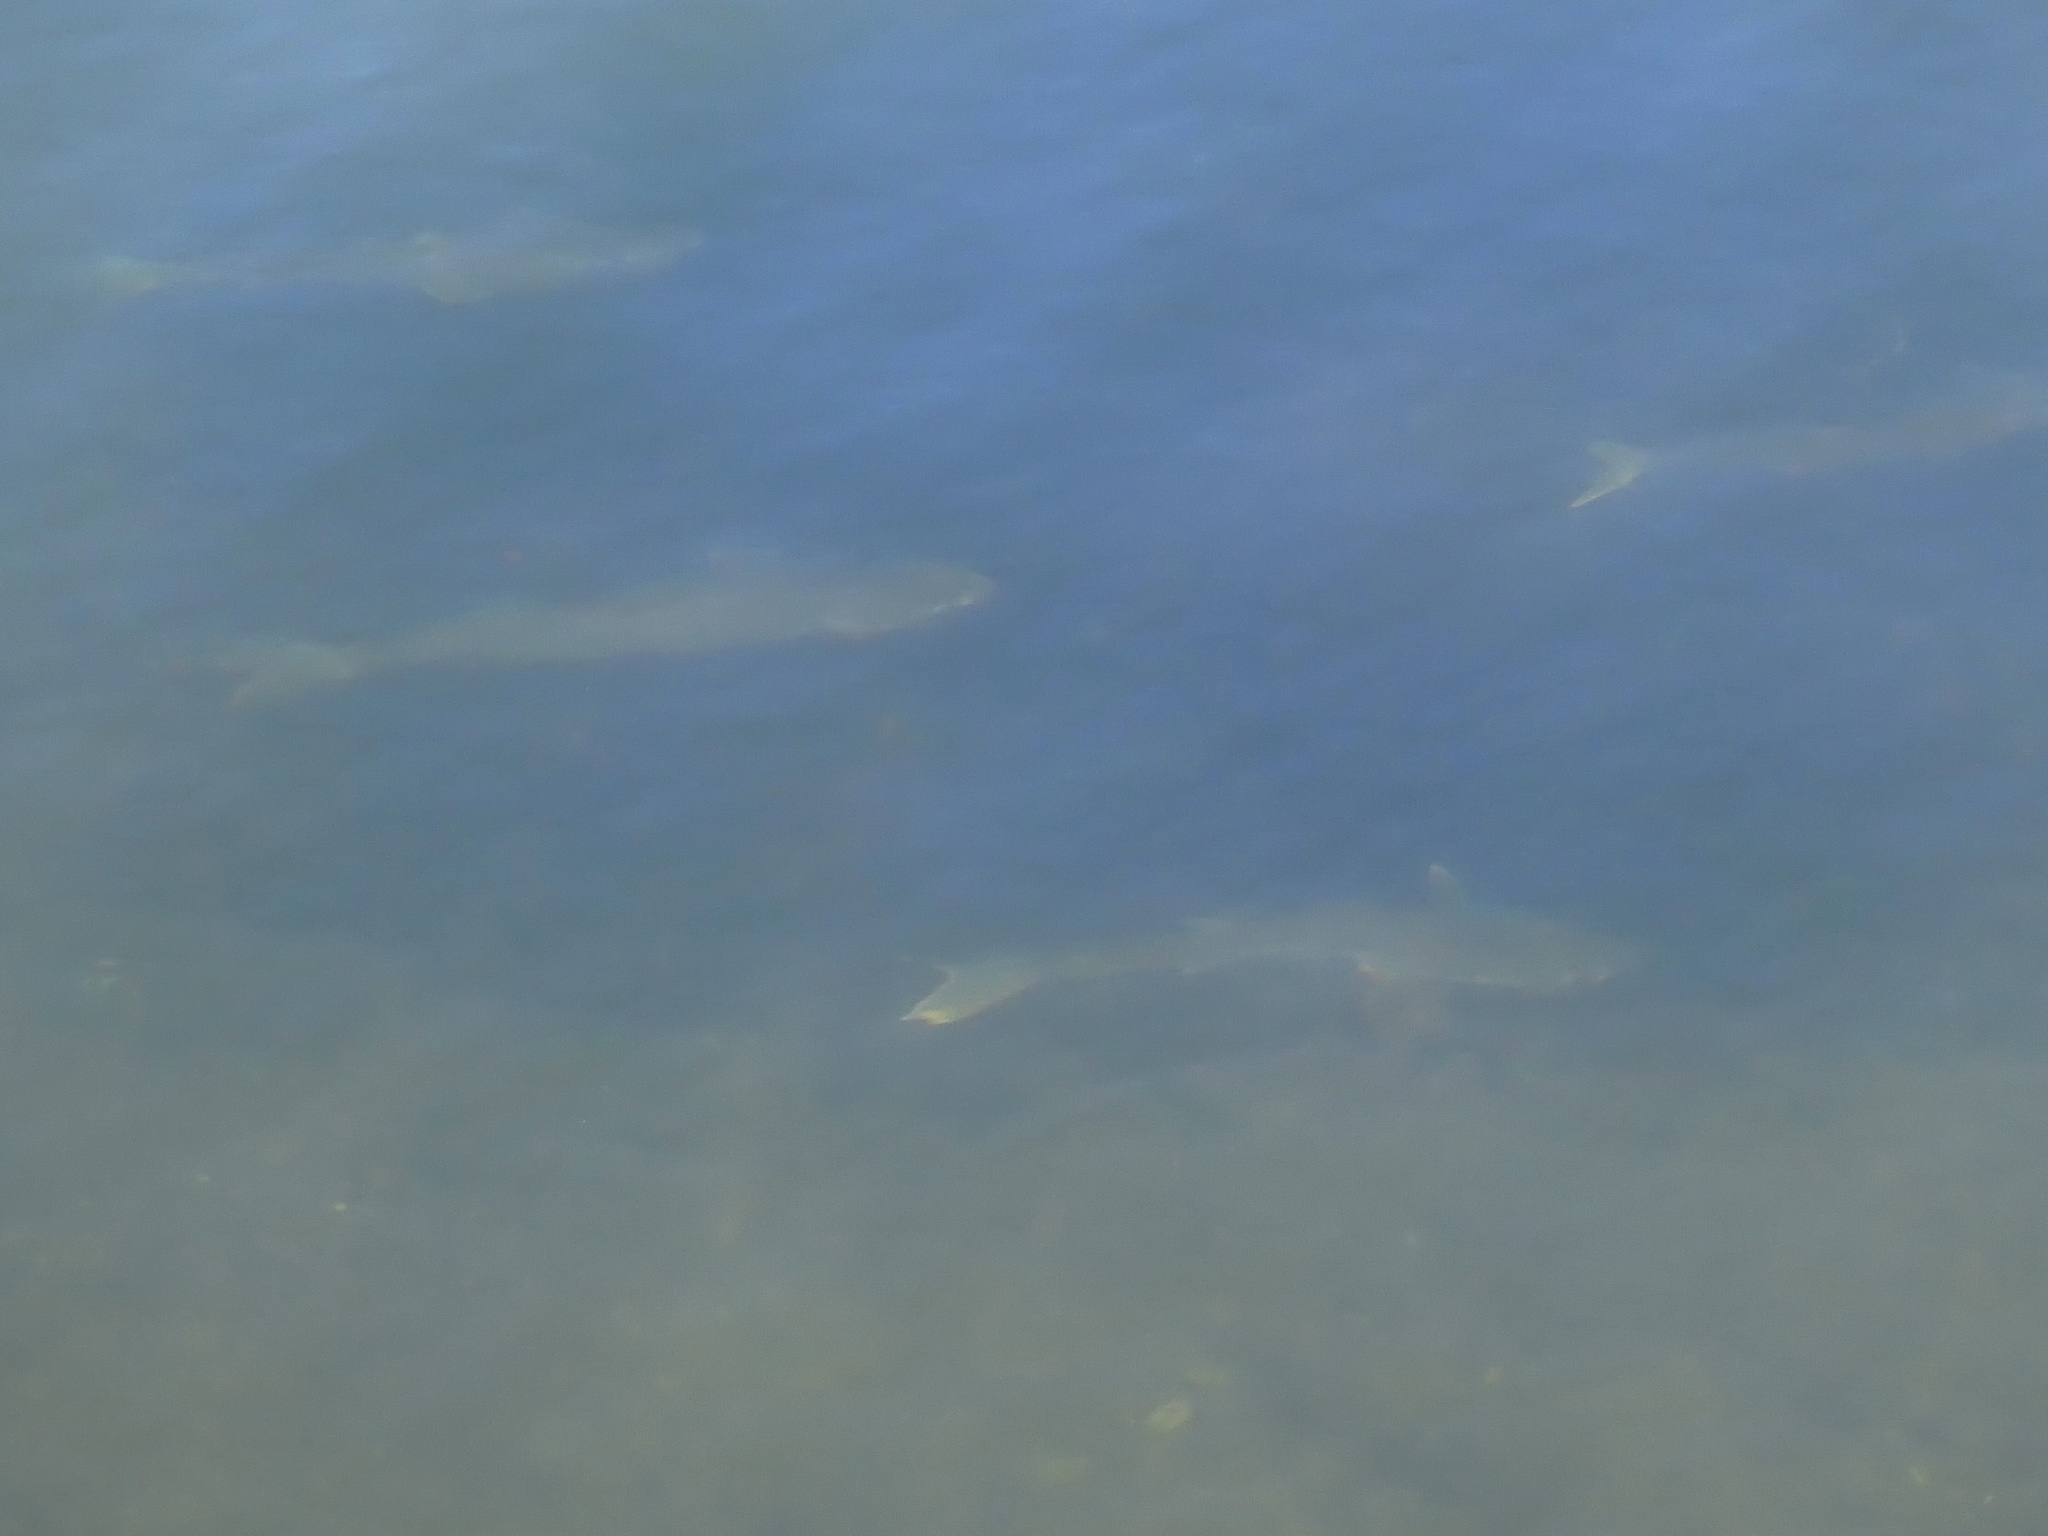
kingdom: Animalia
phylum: Chordata
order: Mugiliformes
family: Mugilidae
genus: Mugil
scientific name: Mugil cephalus
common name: Grey mullet
